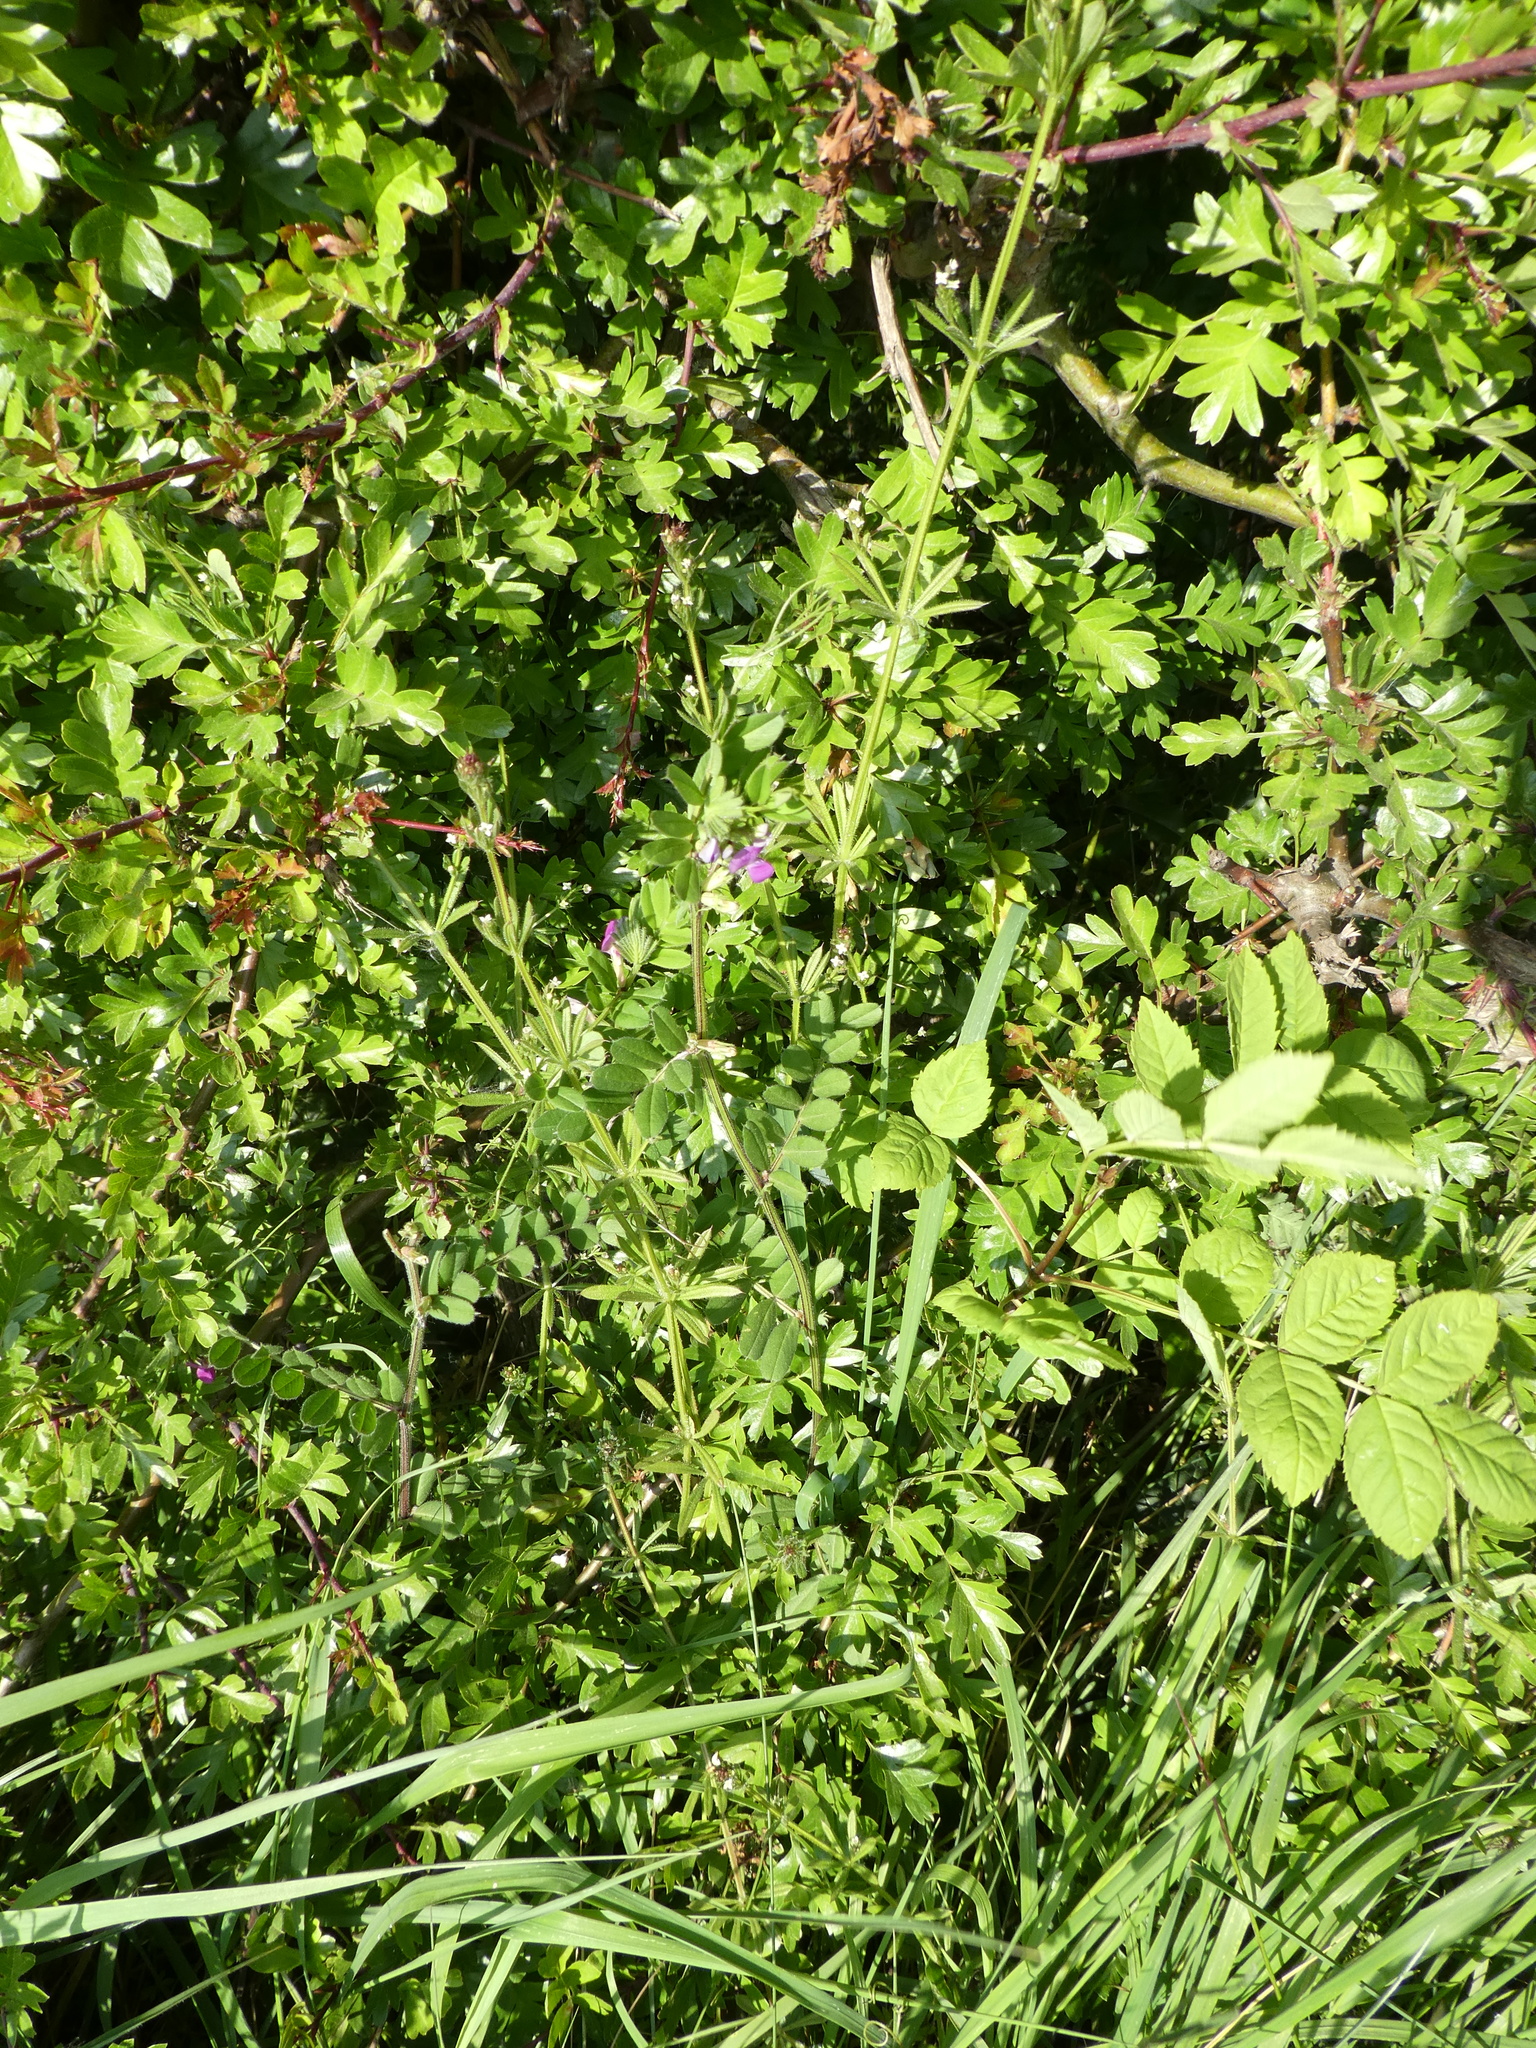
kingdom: Plantae
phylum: Tracheophyta
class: Magnoliopsida
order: Fabales
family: Fabaceae
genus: Vicia
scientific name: Vicia sativa
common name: Garden vetch
